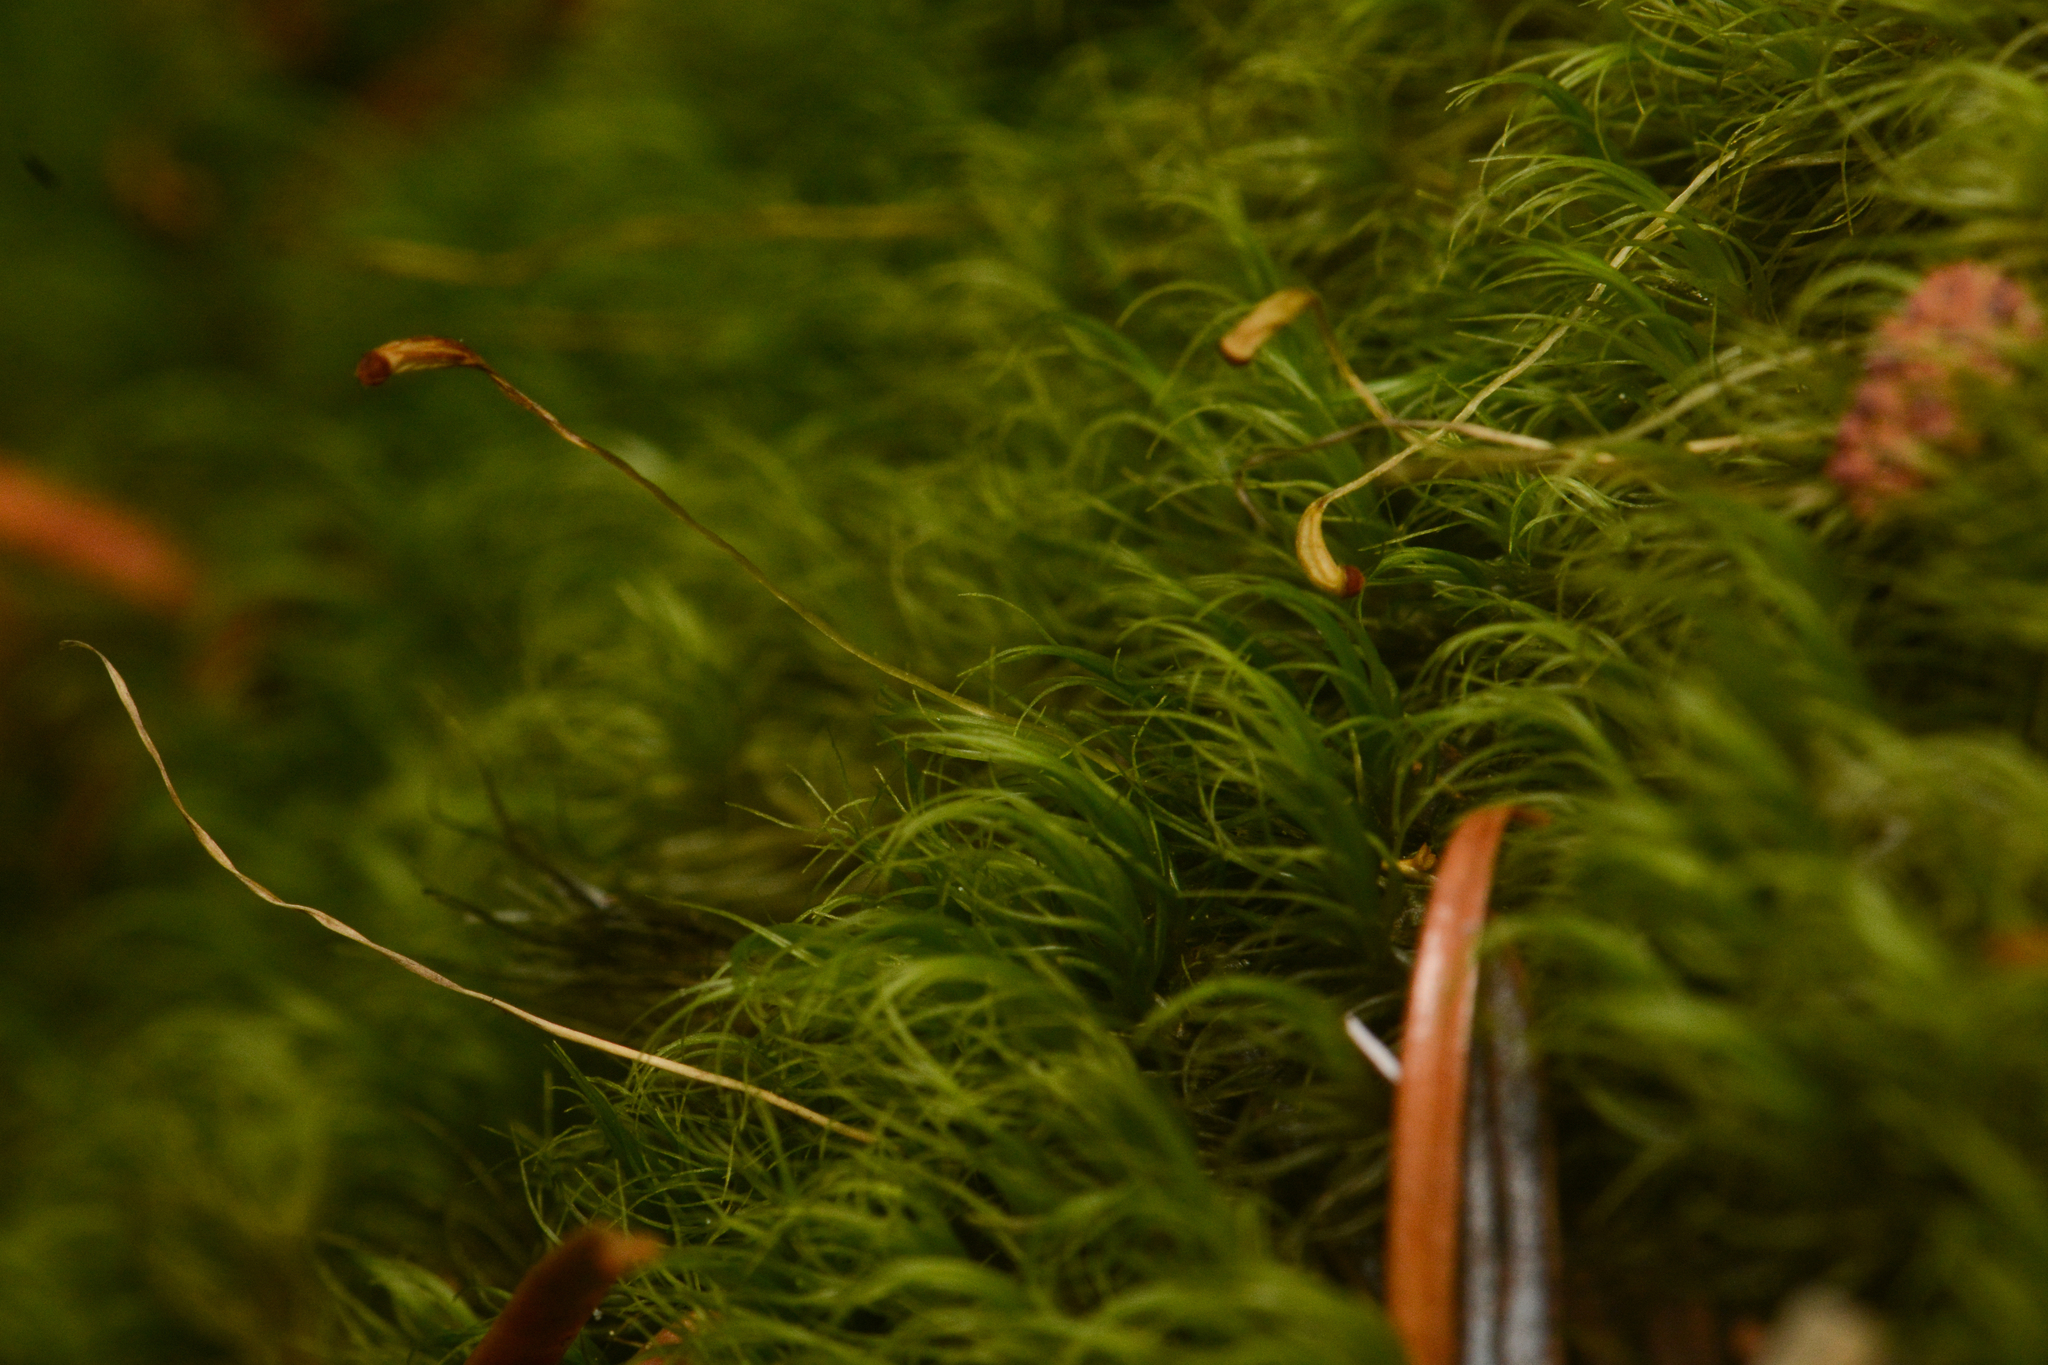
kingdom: Plantae
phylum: Bryophyta
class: Bryopsida
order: Dicranales
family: Dicranaceae
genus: Dicranum
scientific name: Dicranum pallidisetum
